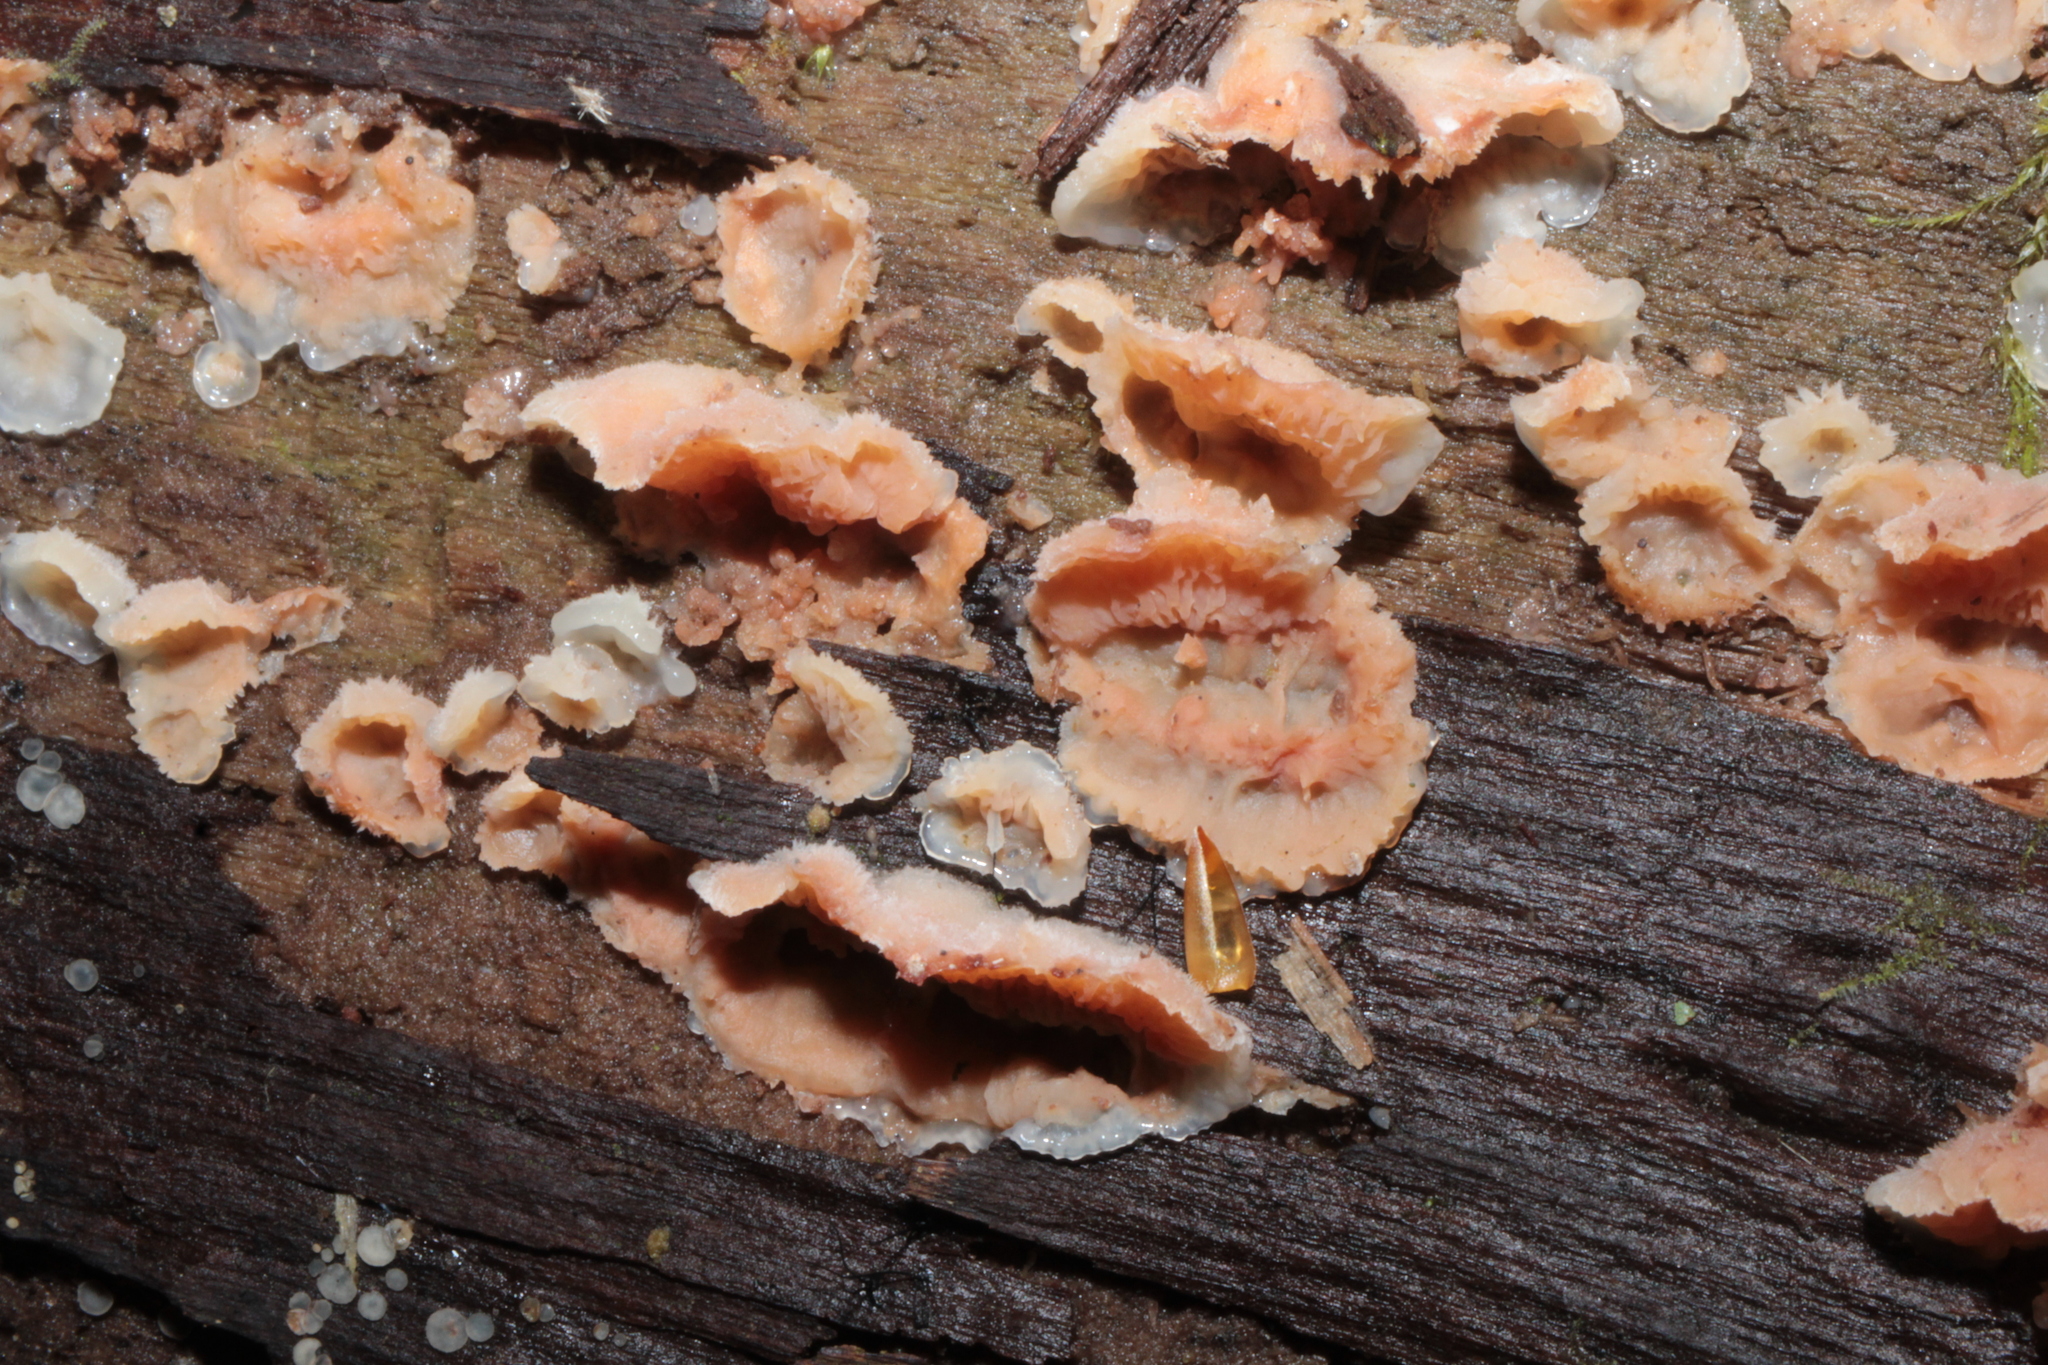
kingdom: Fungi
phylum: Basidiomycota
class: Agaricomycetes
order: Polyporales
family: Meruliaceae
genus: Phlebia
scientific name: Phlebia tremellosa
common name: Jelly rot
